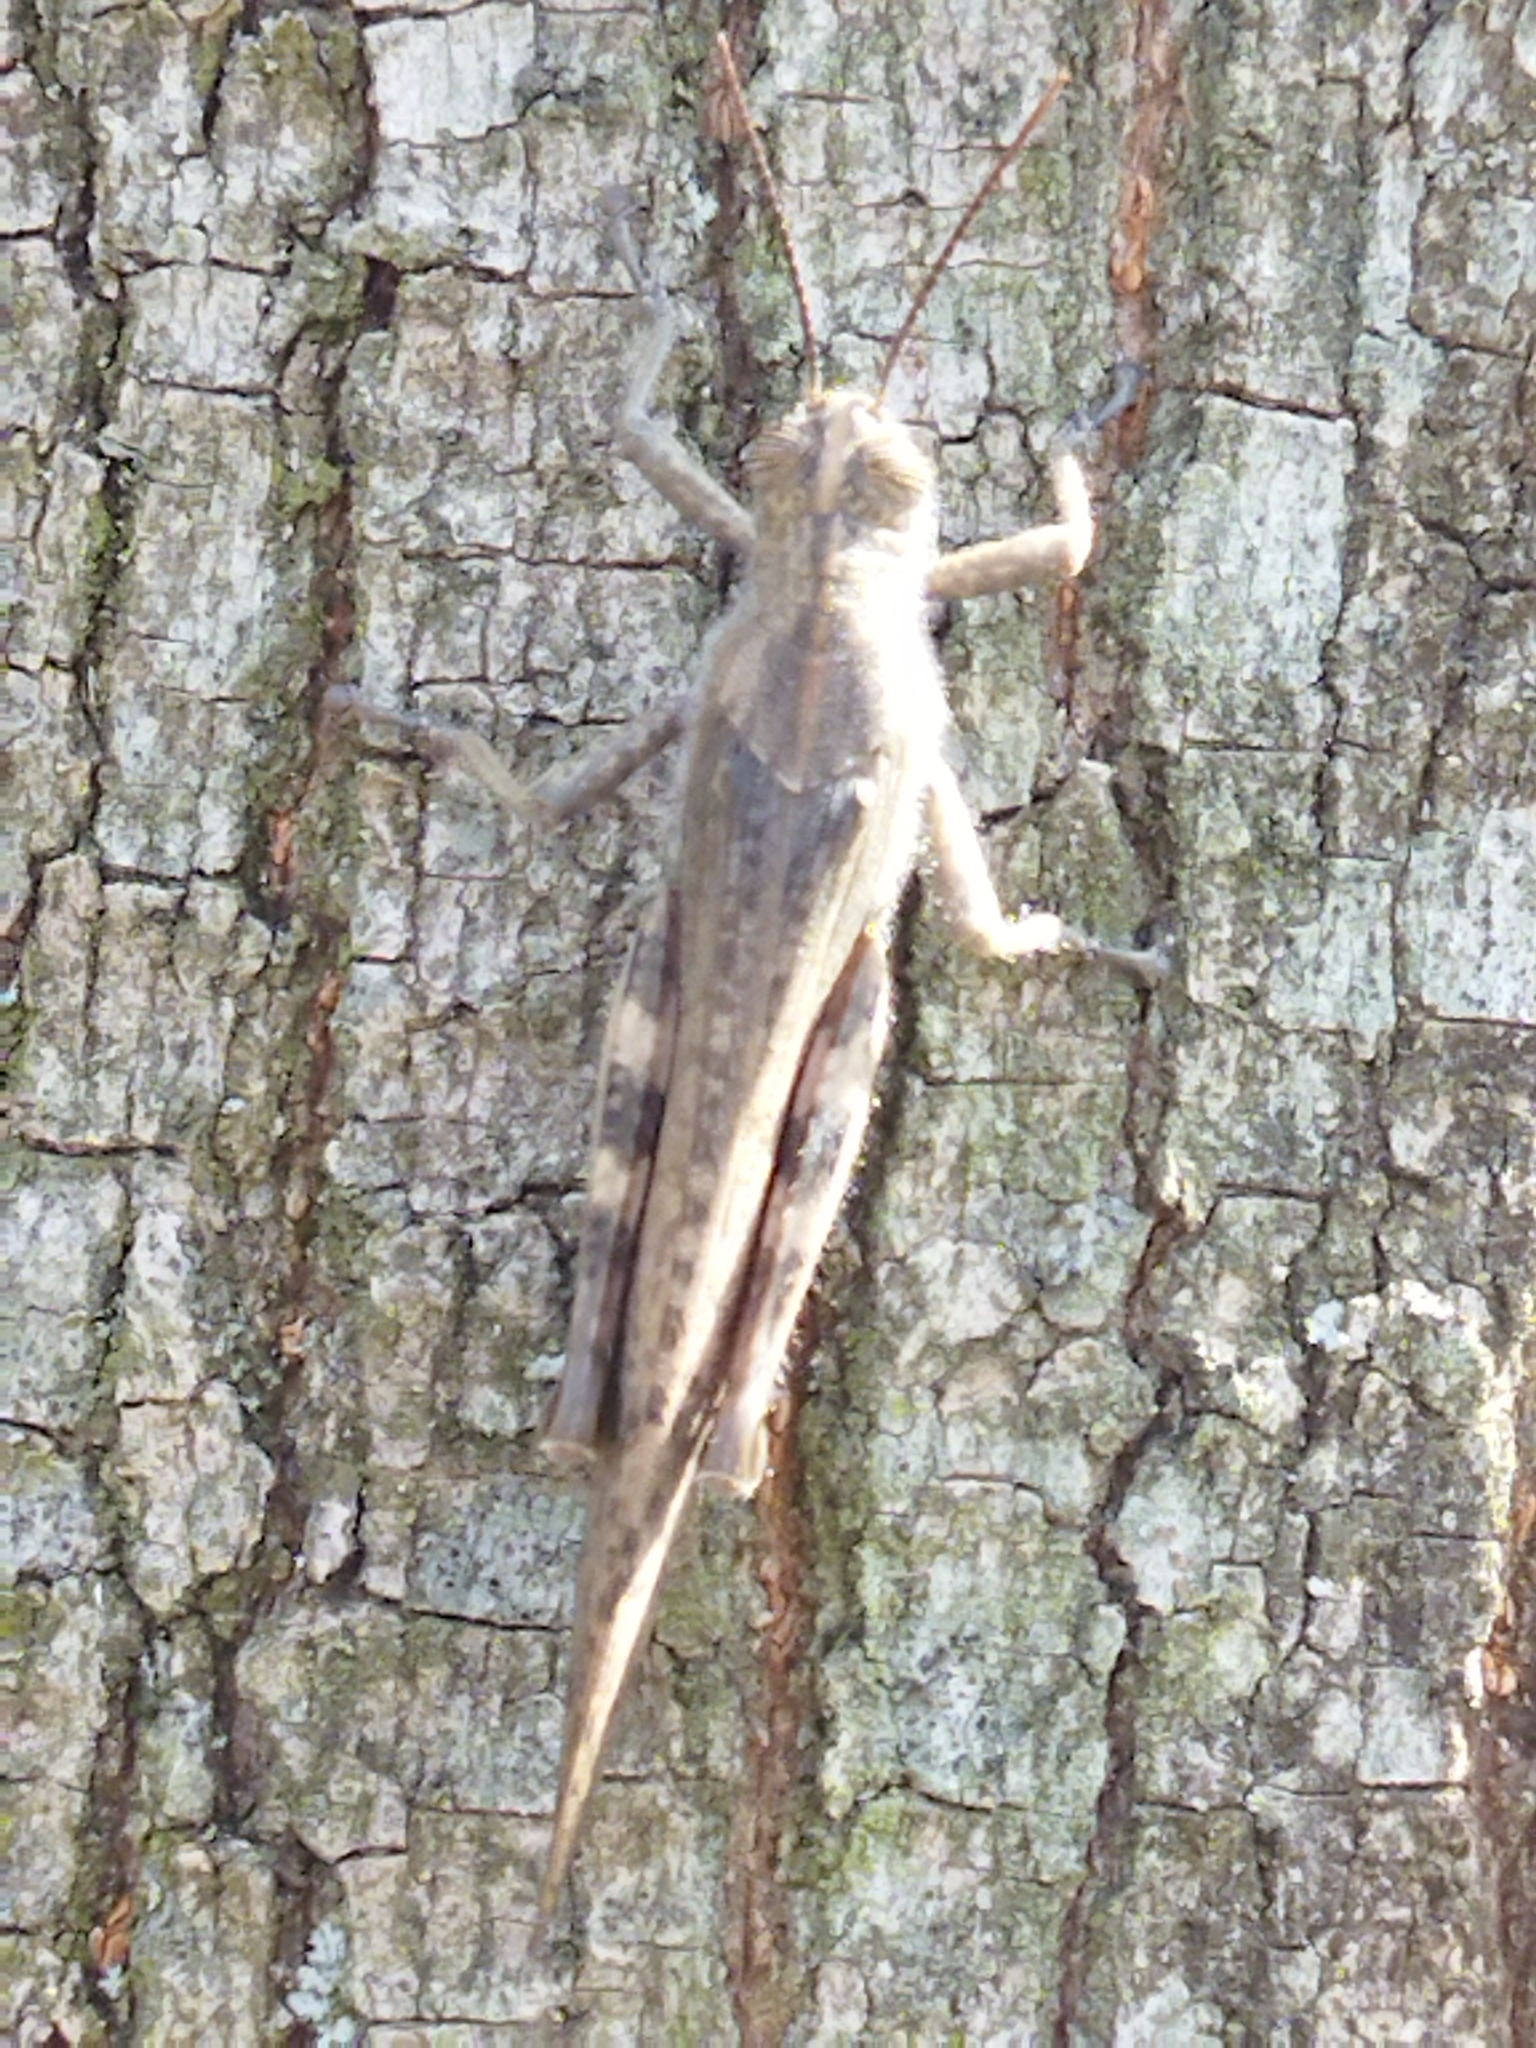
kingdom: Animalia
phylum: Arthropoda
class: Insecta
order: Orthoptera
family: Acrididae
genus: Anacridium
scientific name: Anacridium aegyptium
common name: Egyptian grasshopper
